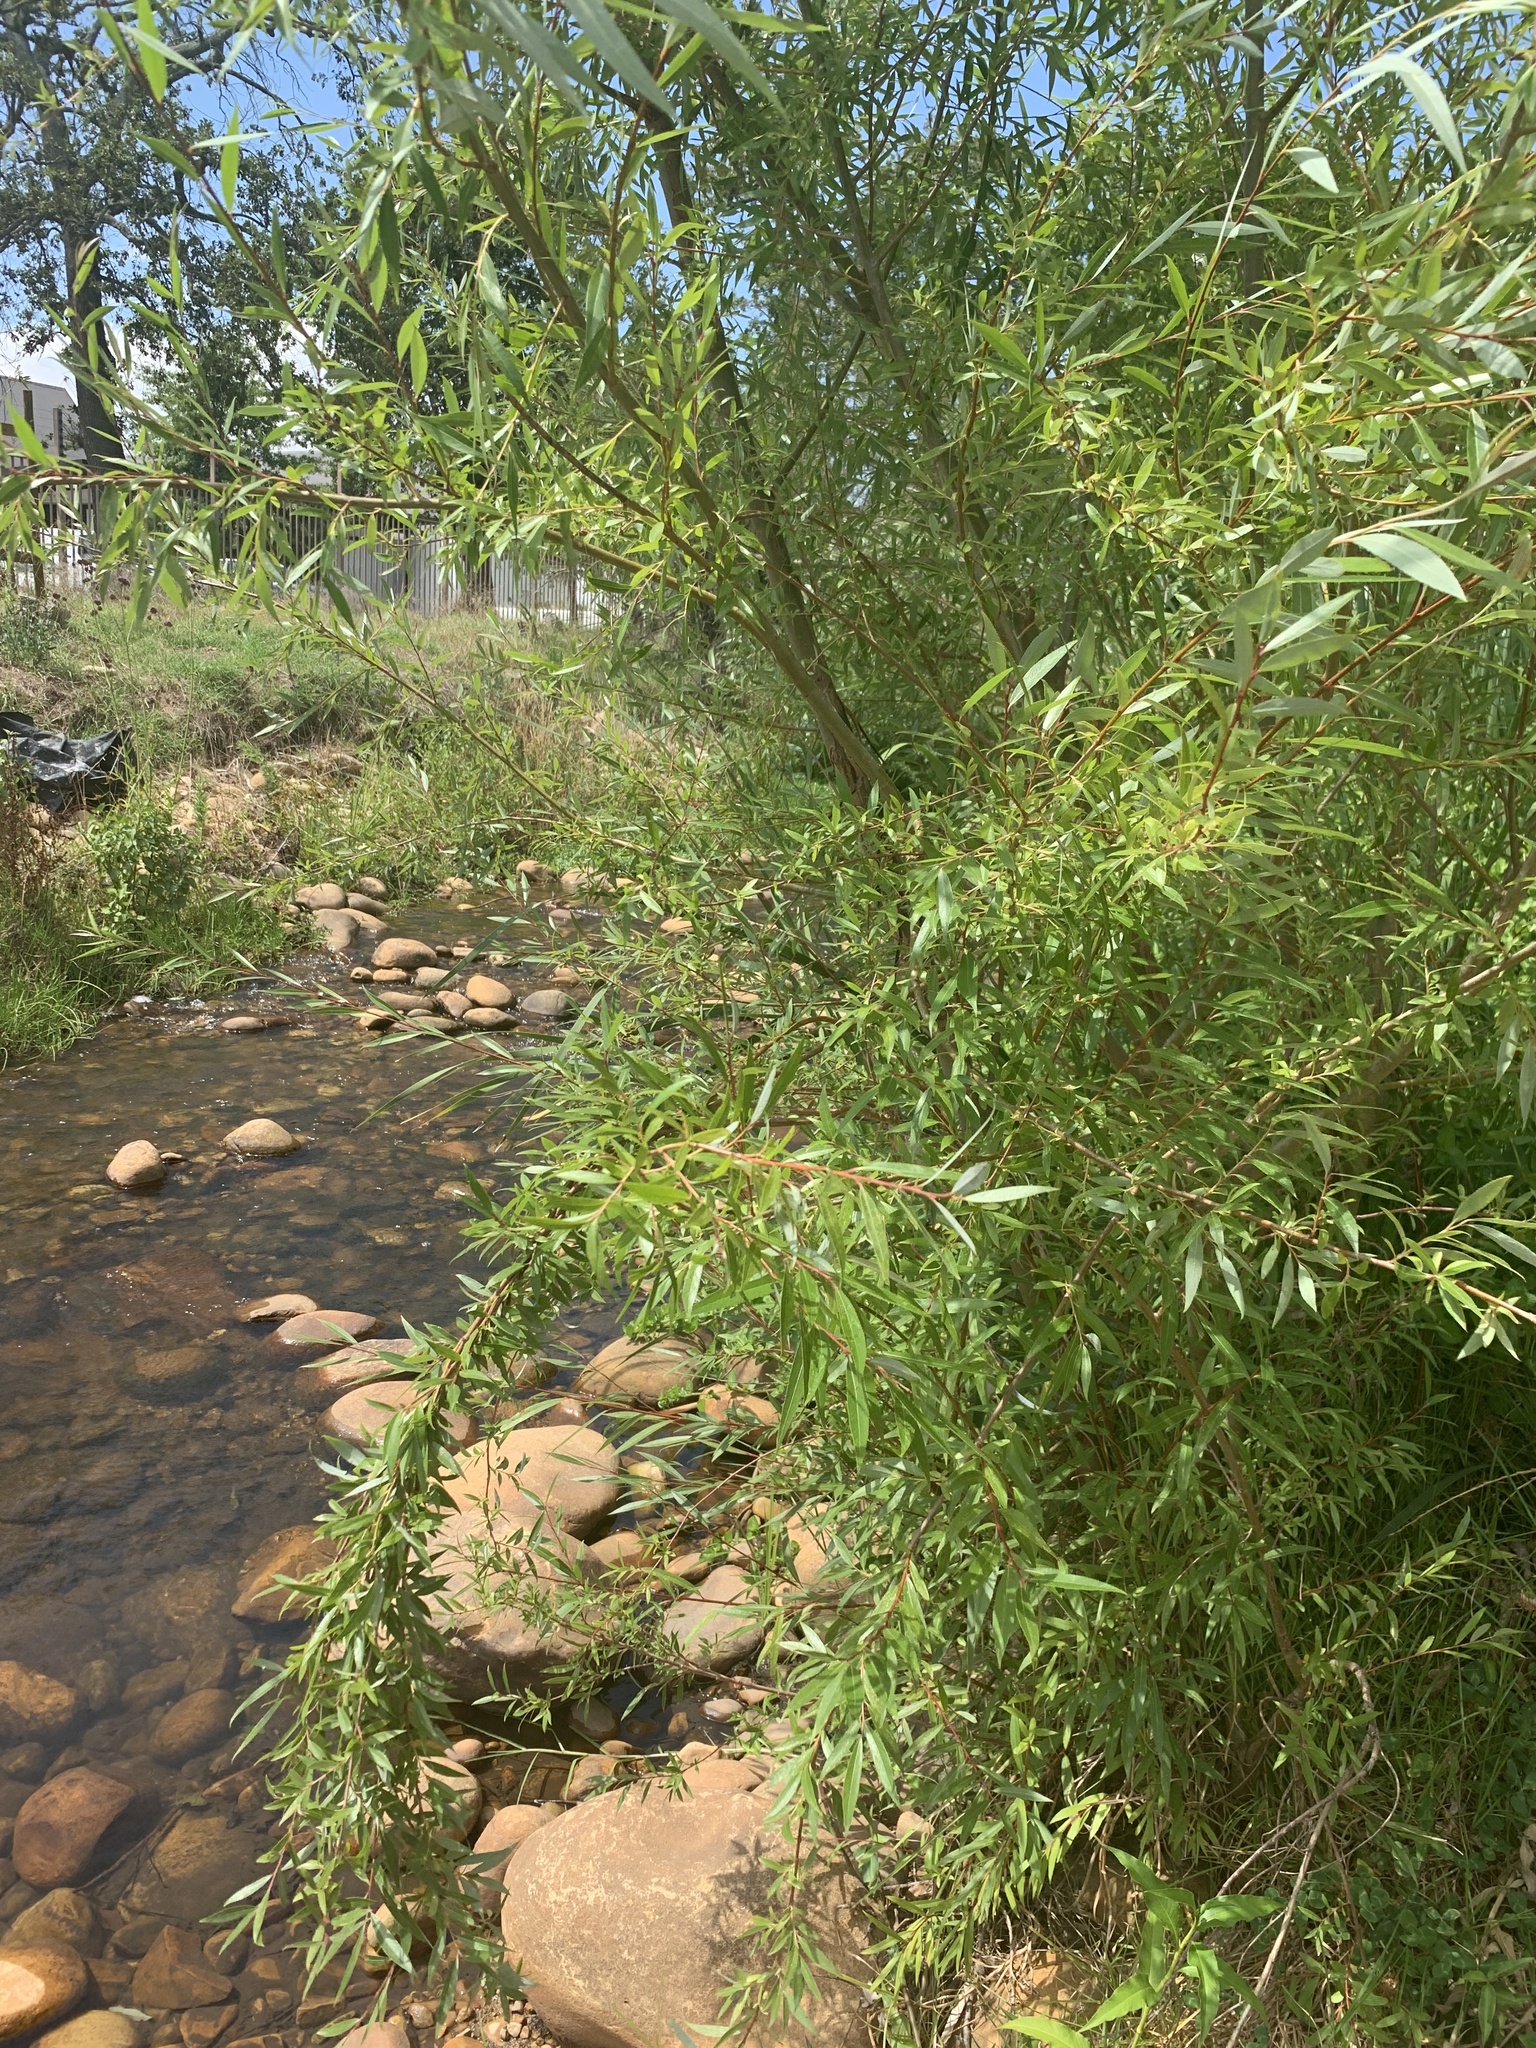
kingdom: Plantae
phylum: Tracheophyta
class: Magnoliopsida
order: Malpighiales
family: Salicaceae
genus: Salix
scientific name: Salix mucronata
